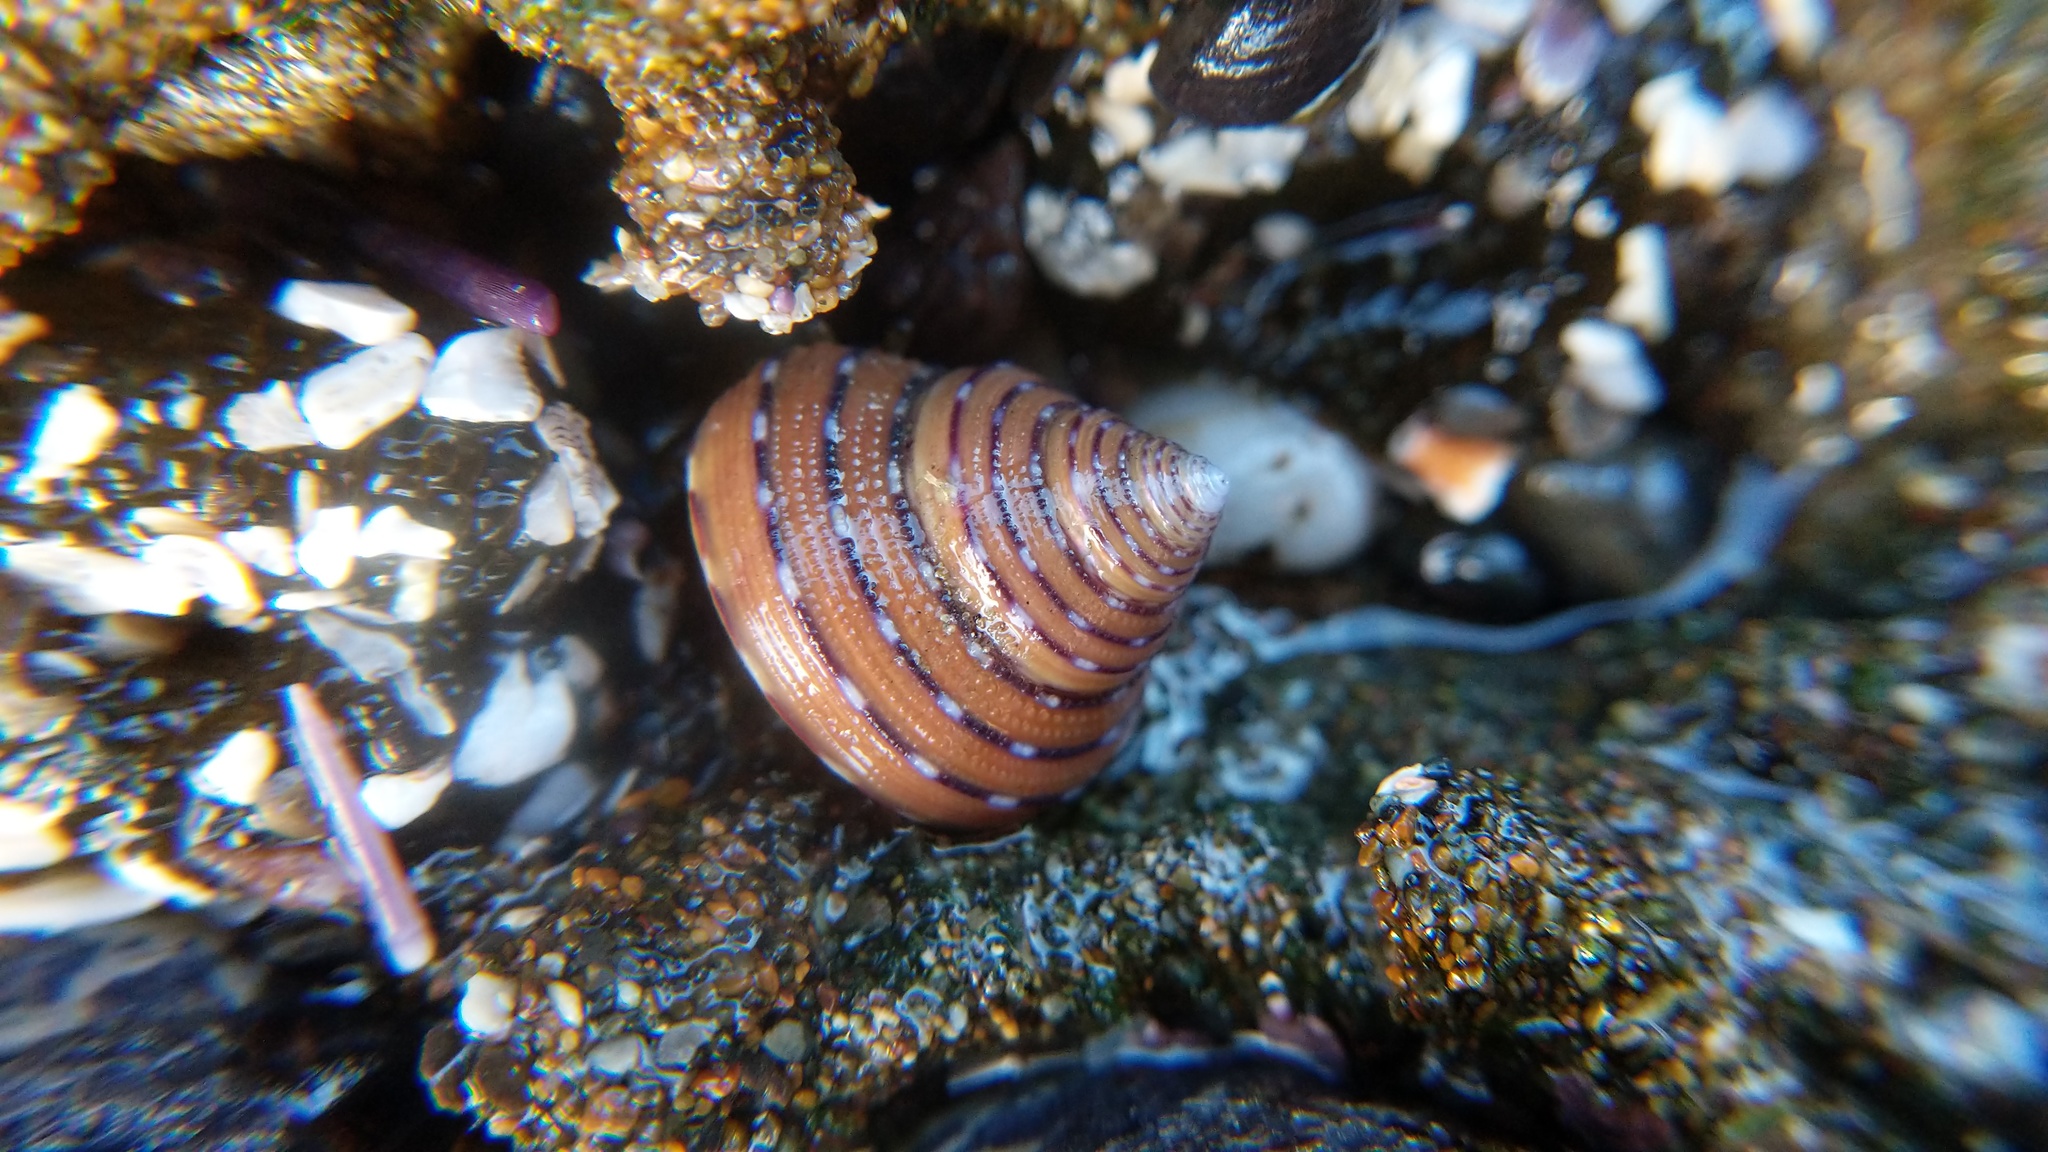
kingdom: Animalia
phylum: Mollusca
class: Gastropoda
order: Trochida
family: Calliostomatidae
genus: Calliostoma
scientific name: Calliostoma tricolor
